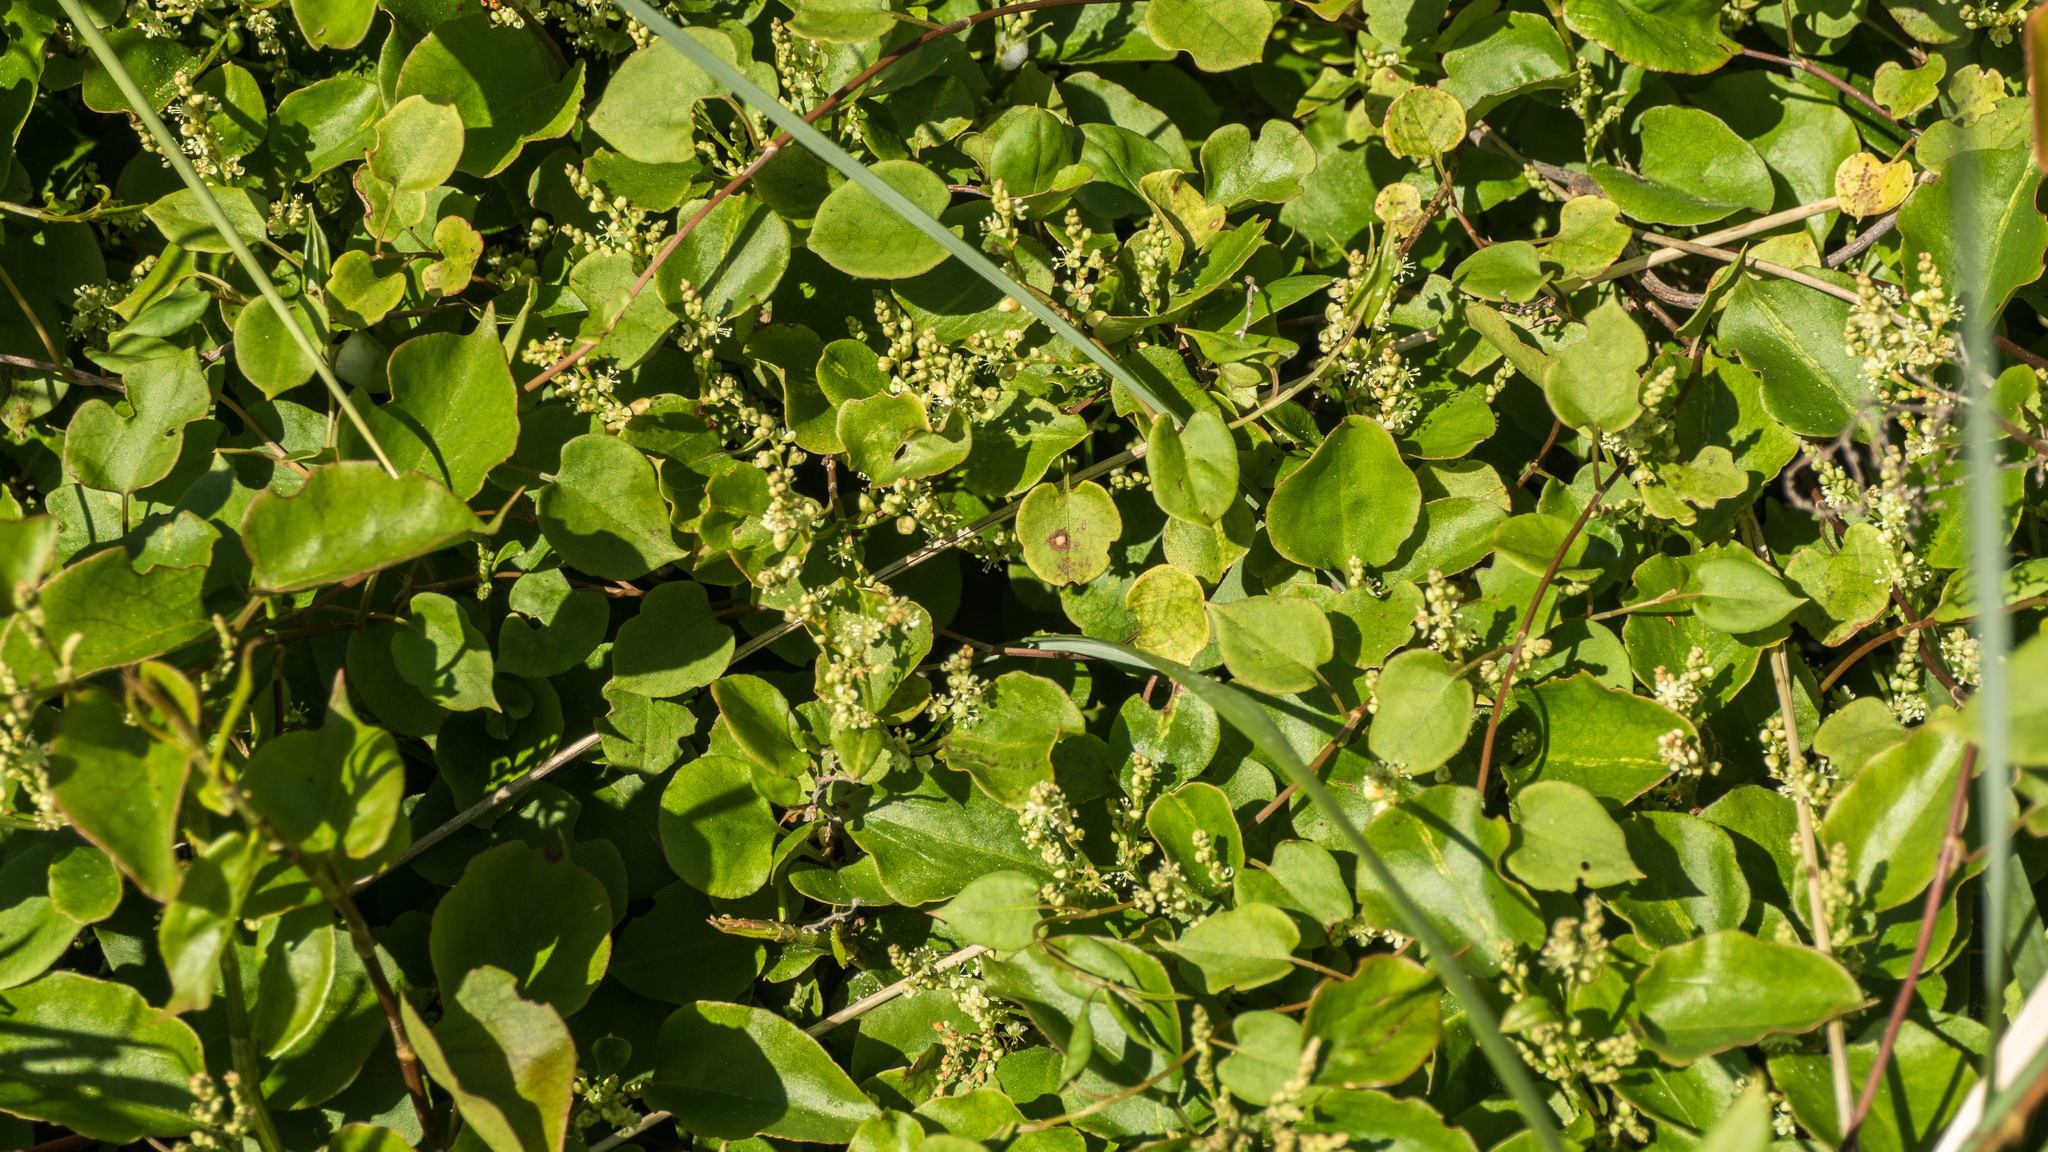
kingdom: Plantae
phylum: Tracheophyta
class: Magnoliopsida
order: Caryophyllales
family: Polygonaceae
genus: Muehlenbeckia
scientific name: Muehlenbeckia australis
